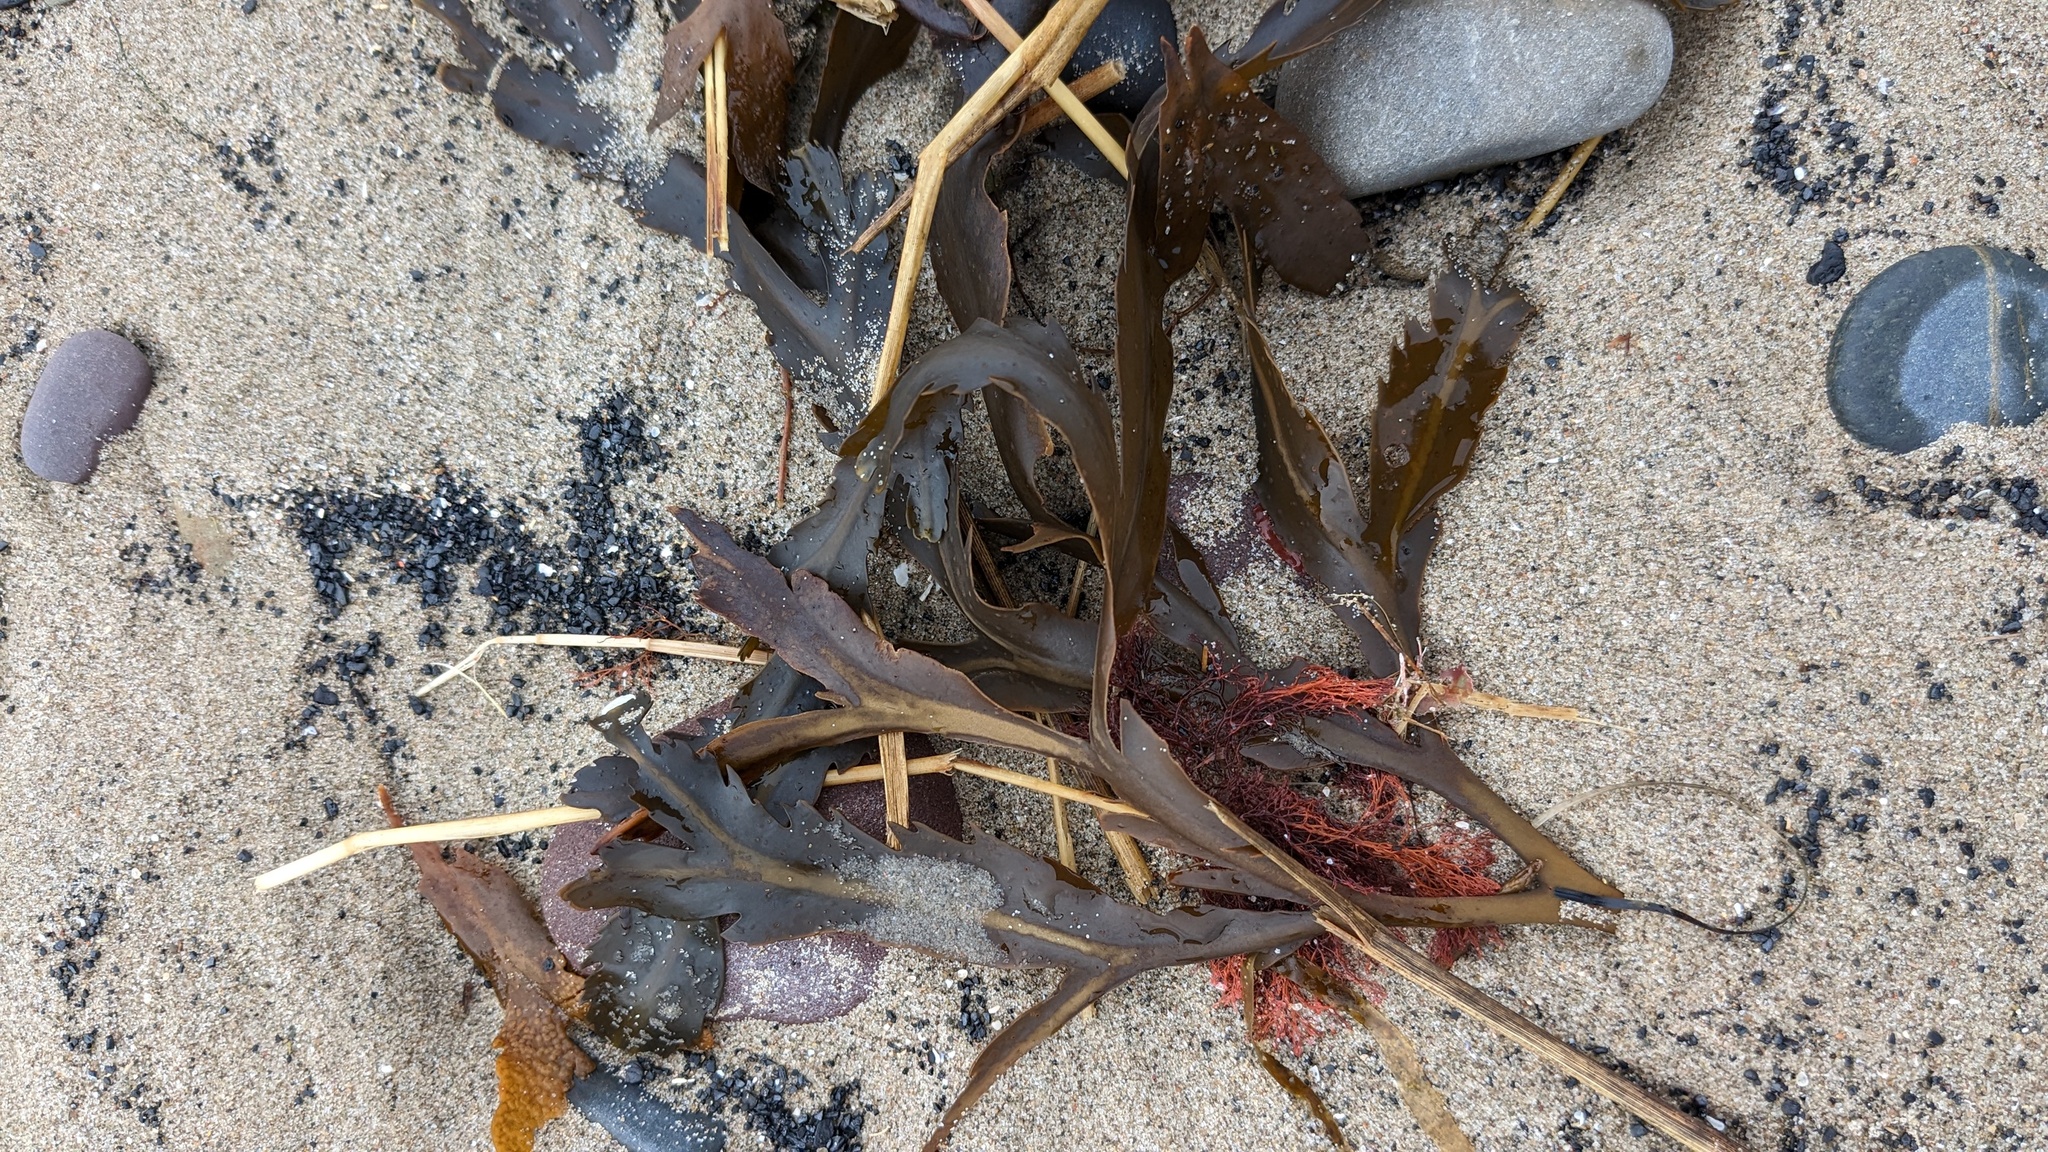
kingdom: Chromista
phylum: Ochrophyta
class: Phaeophyceae
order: Fucales
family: Fucaceae
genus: Fucus
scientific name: Fucus serratus
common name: Toothed wrack
